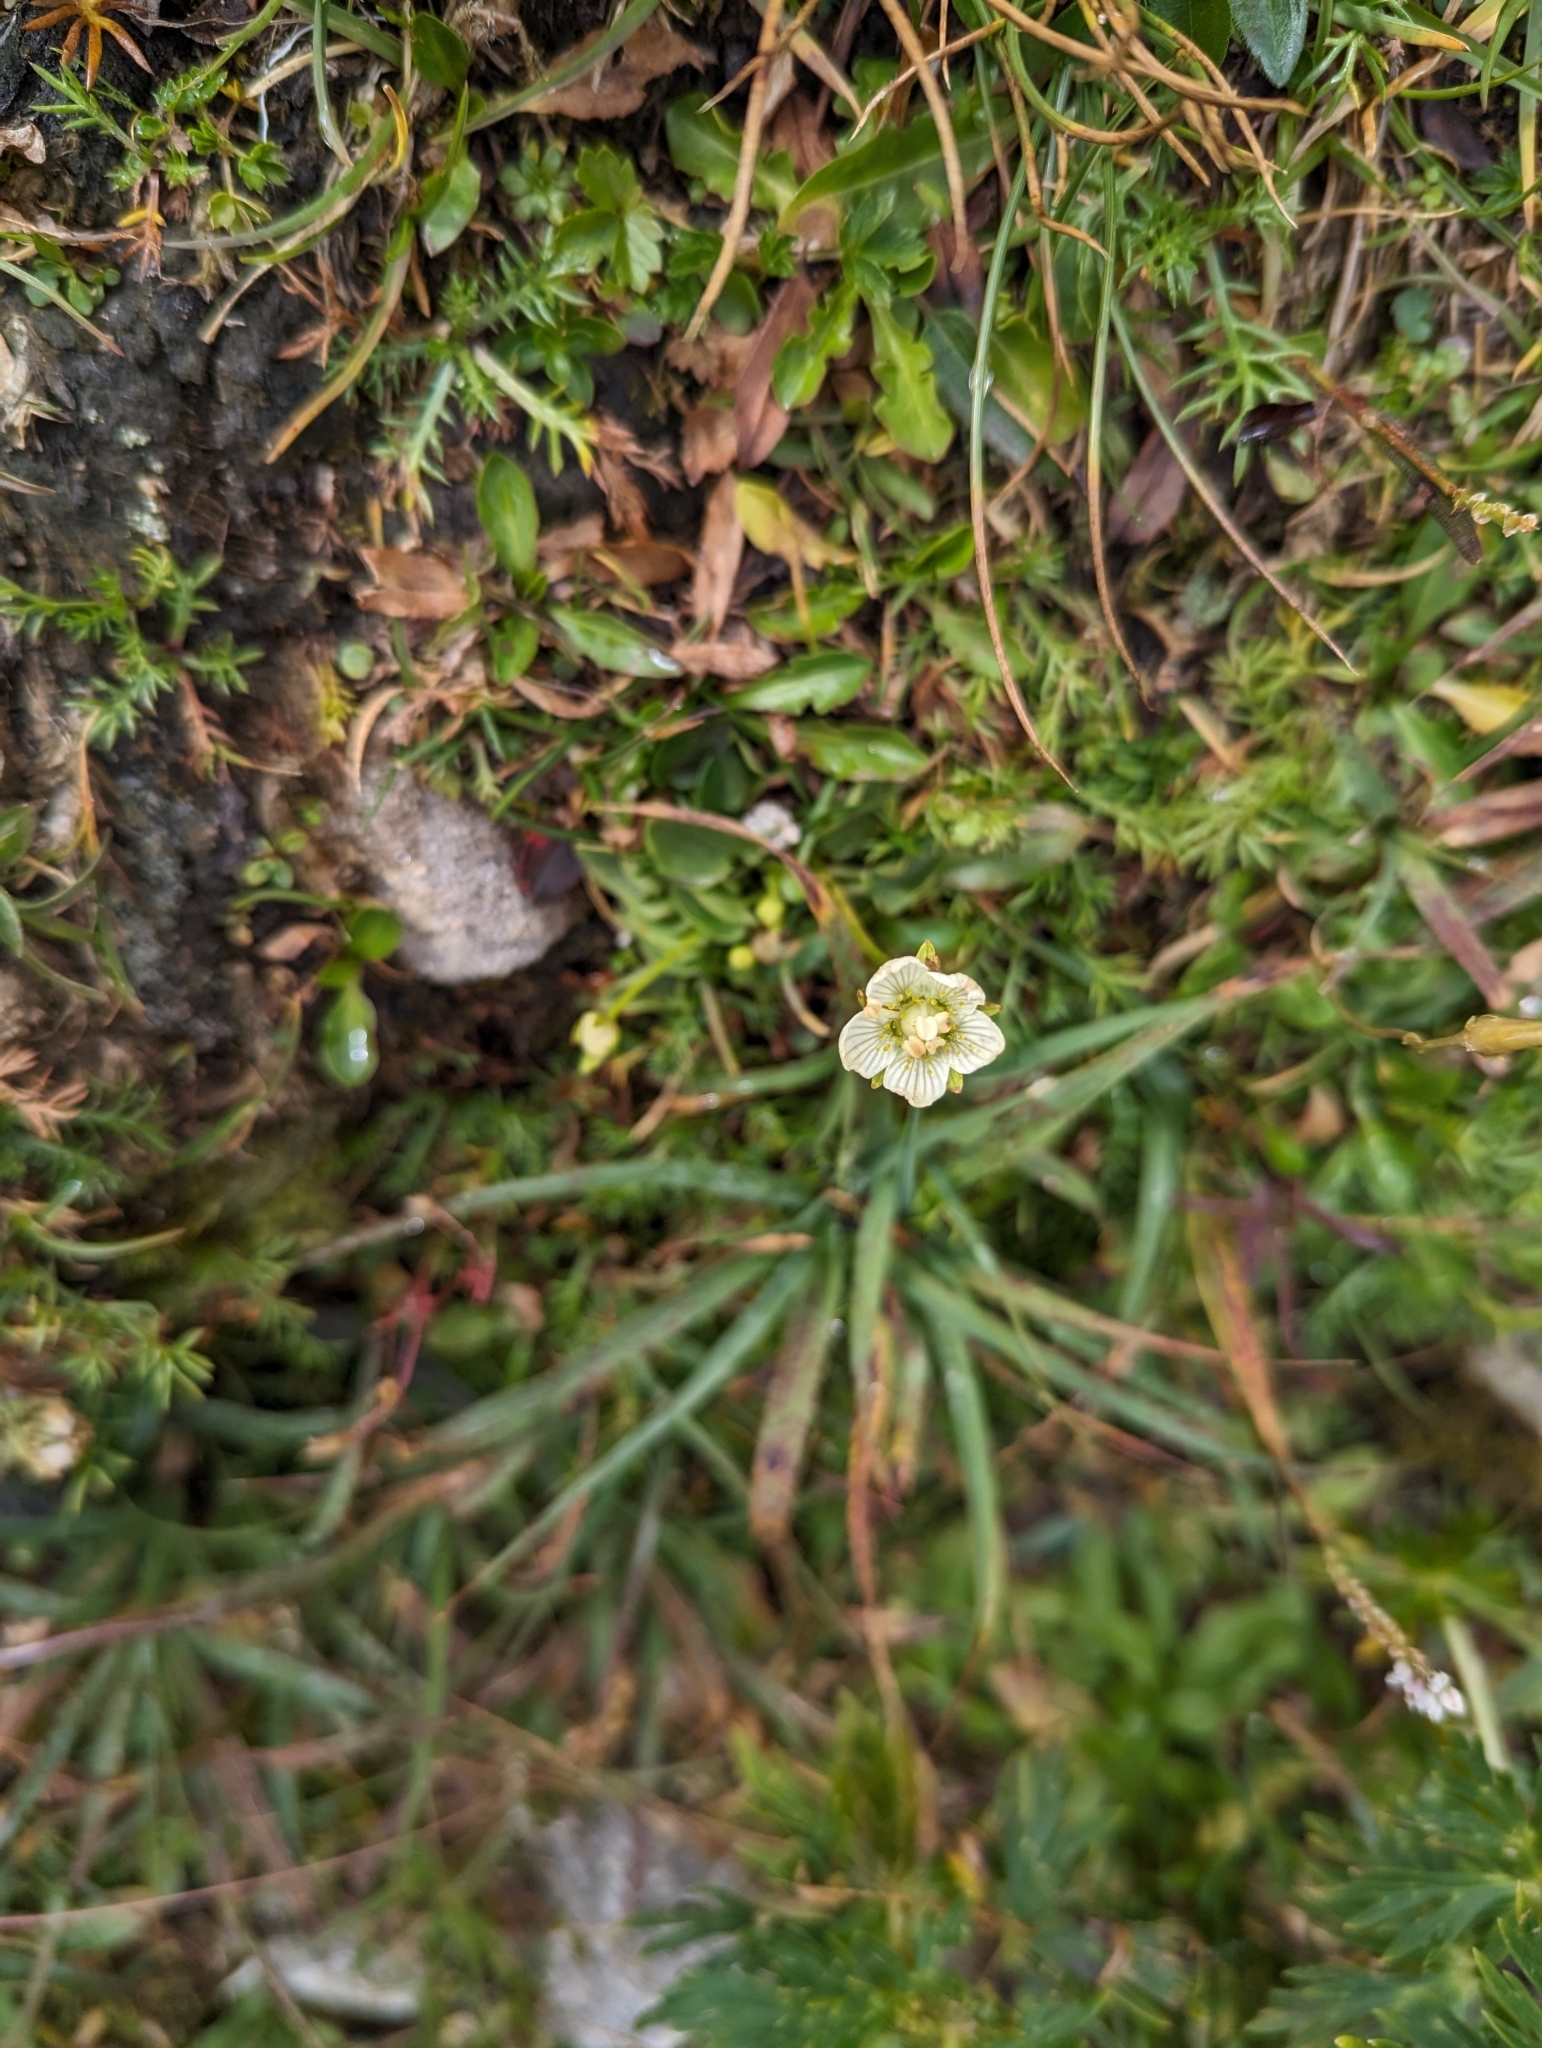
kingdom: Plantae
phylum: Tracheophyta
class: Magnoliopsida
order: Celastrales
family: Parnassiaceae
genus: Parnassia
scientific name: Parnassia palustris
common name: Grass-of-parnassus
